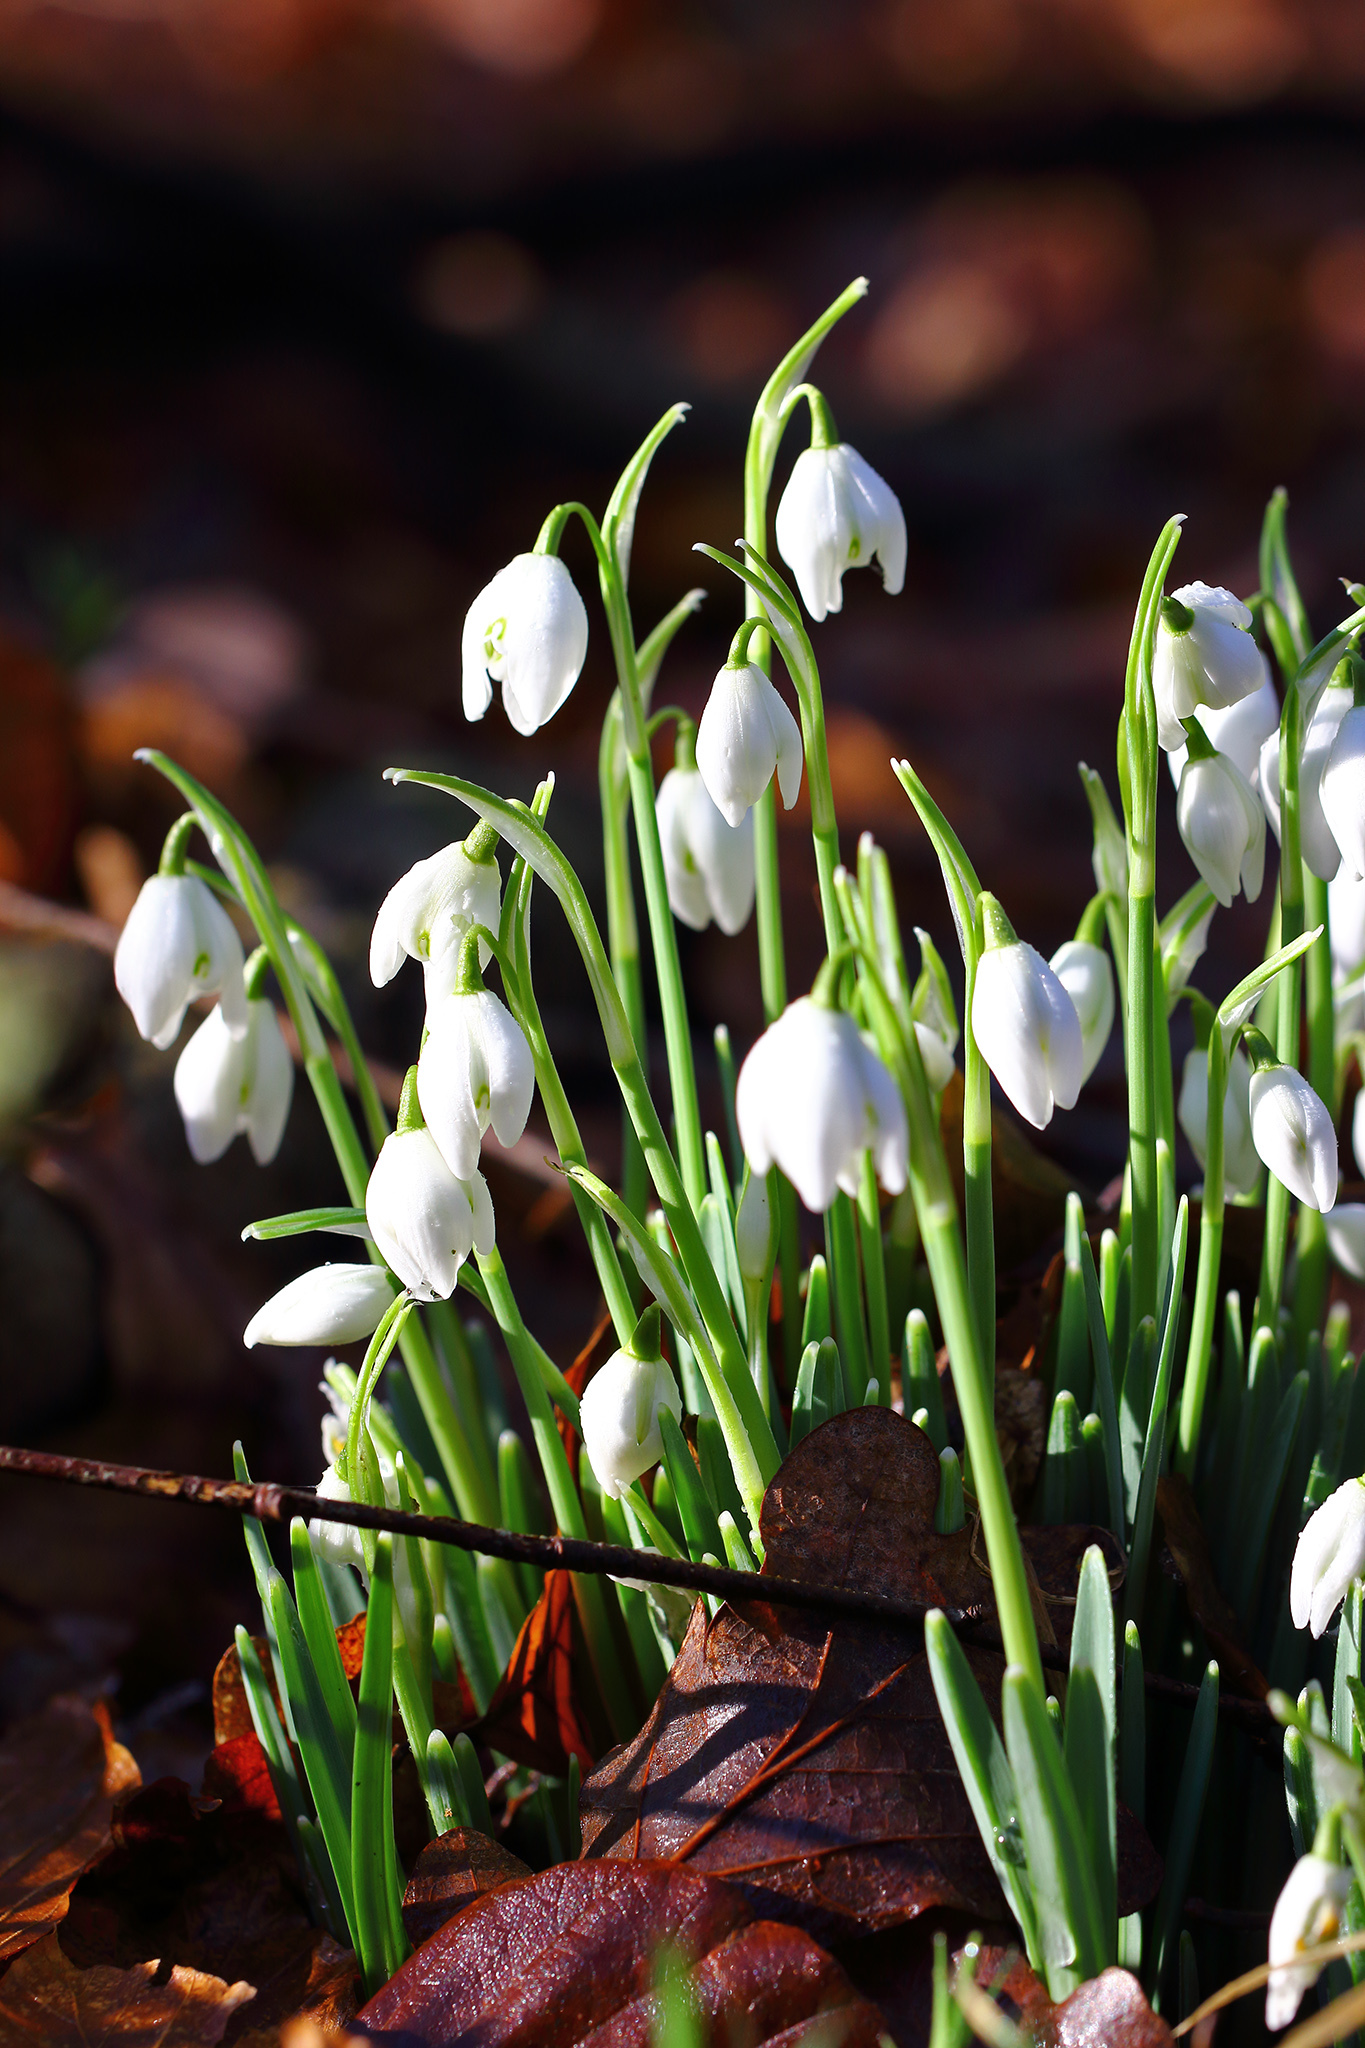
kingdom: Plantae
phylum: Tracheophyta
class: Liliopsida
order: Asparagales
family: Amaryllidaceae
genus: Galanthus
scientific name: Galanthus nivalis
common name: Snowdrop
